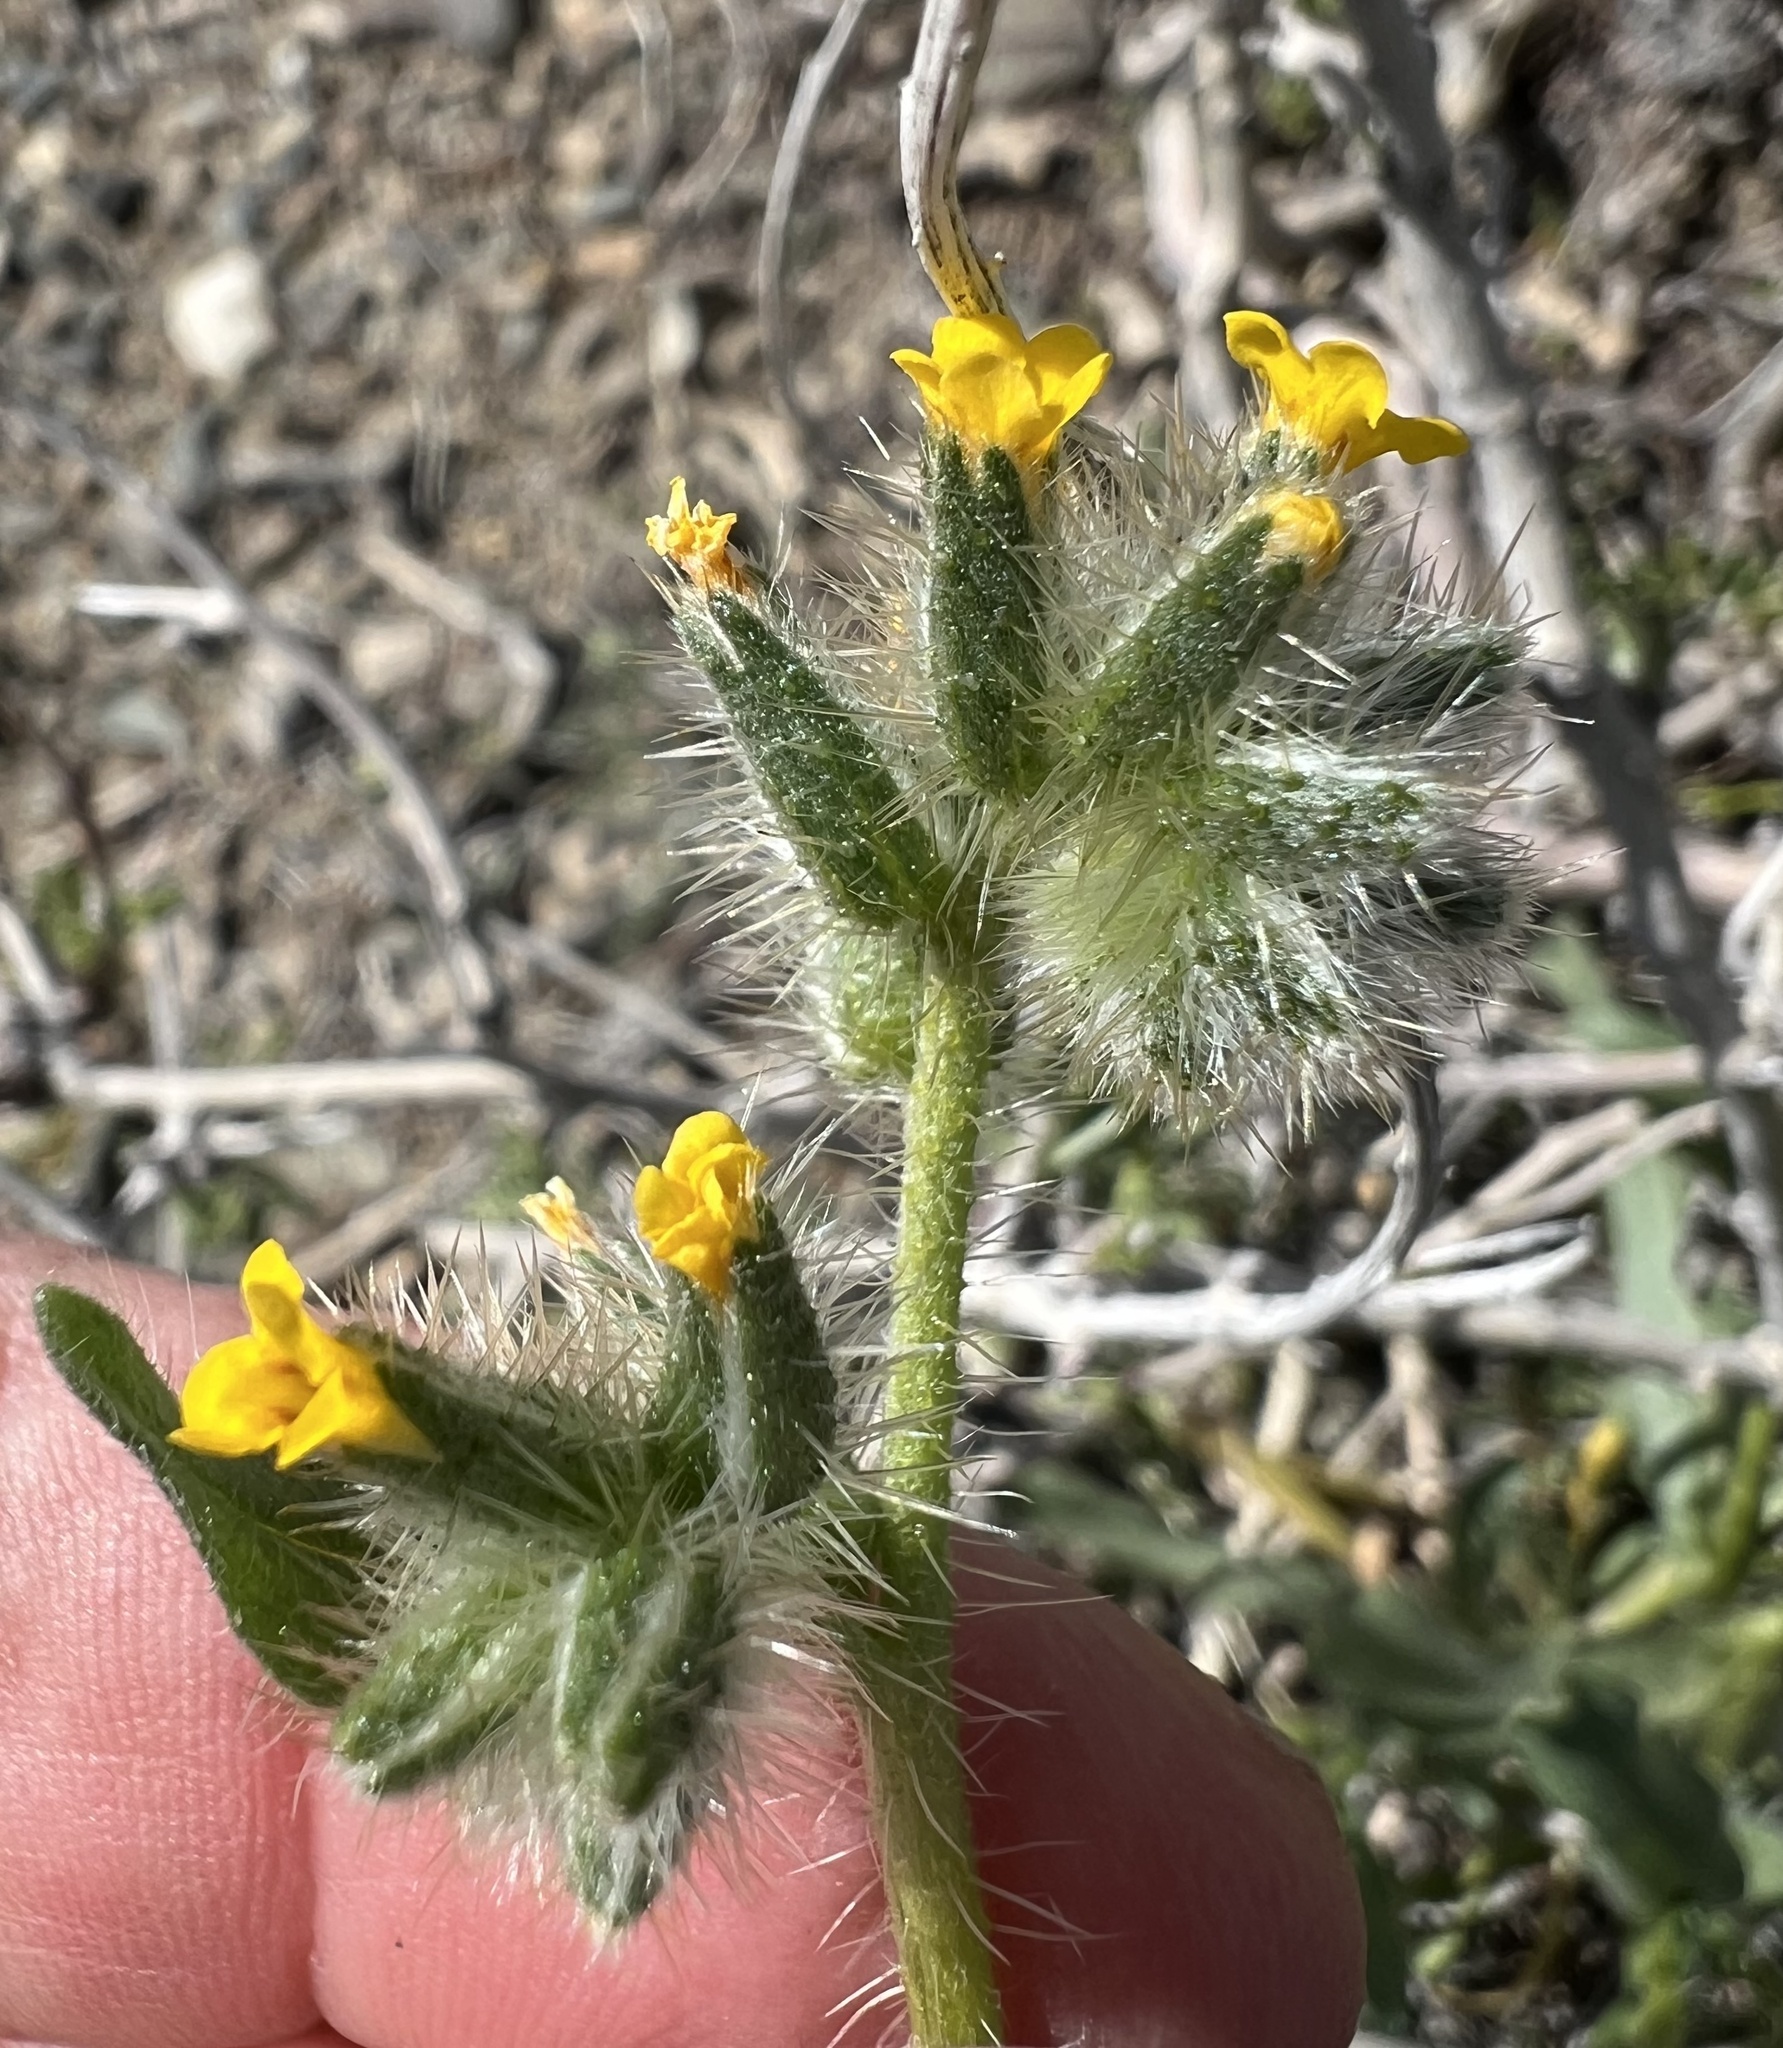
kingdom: Plantae
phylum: Tracheophyta
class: Magnoliopsida
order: Boraginales
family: Boraginaceae
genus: Amsinckia
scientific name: Amsinckia tessellata
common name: Tessellate fiddleneck
